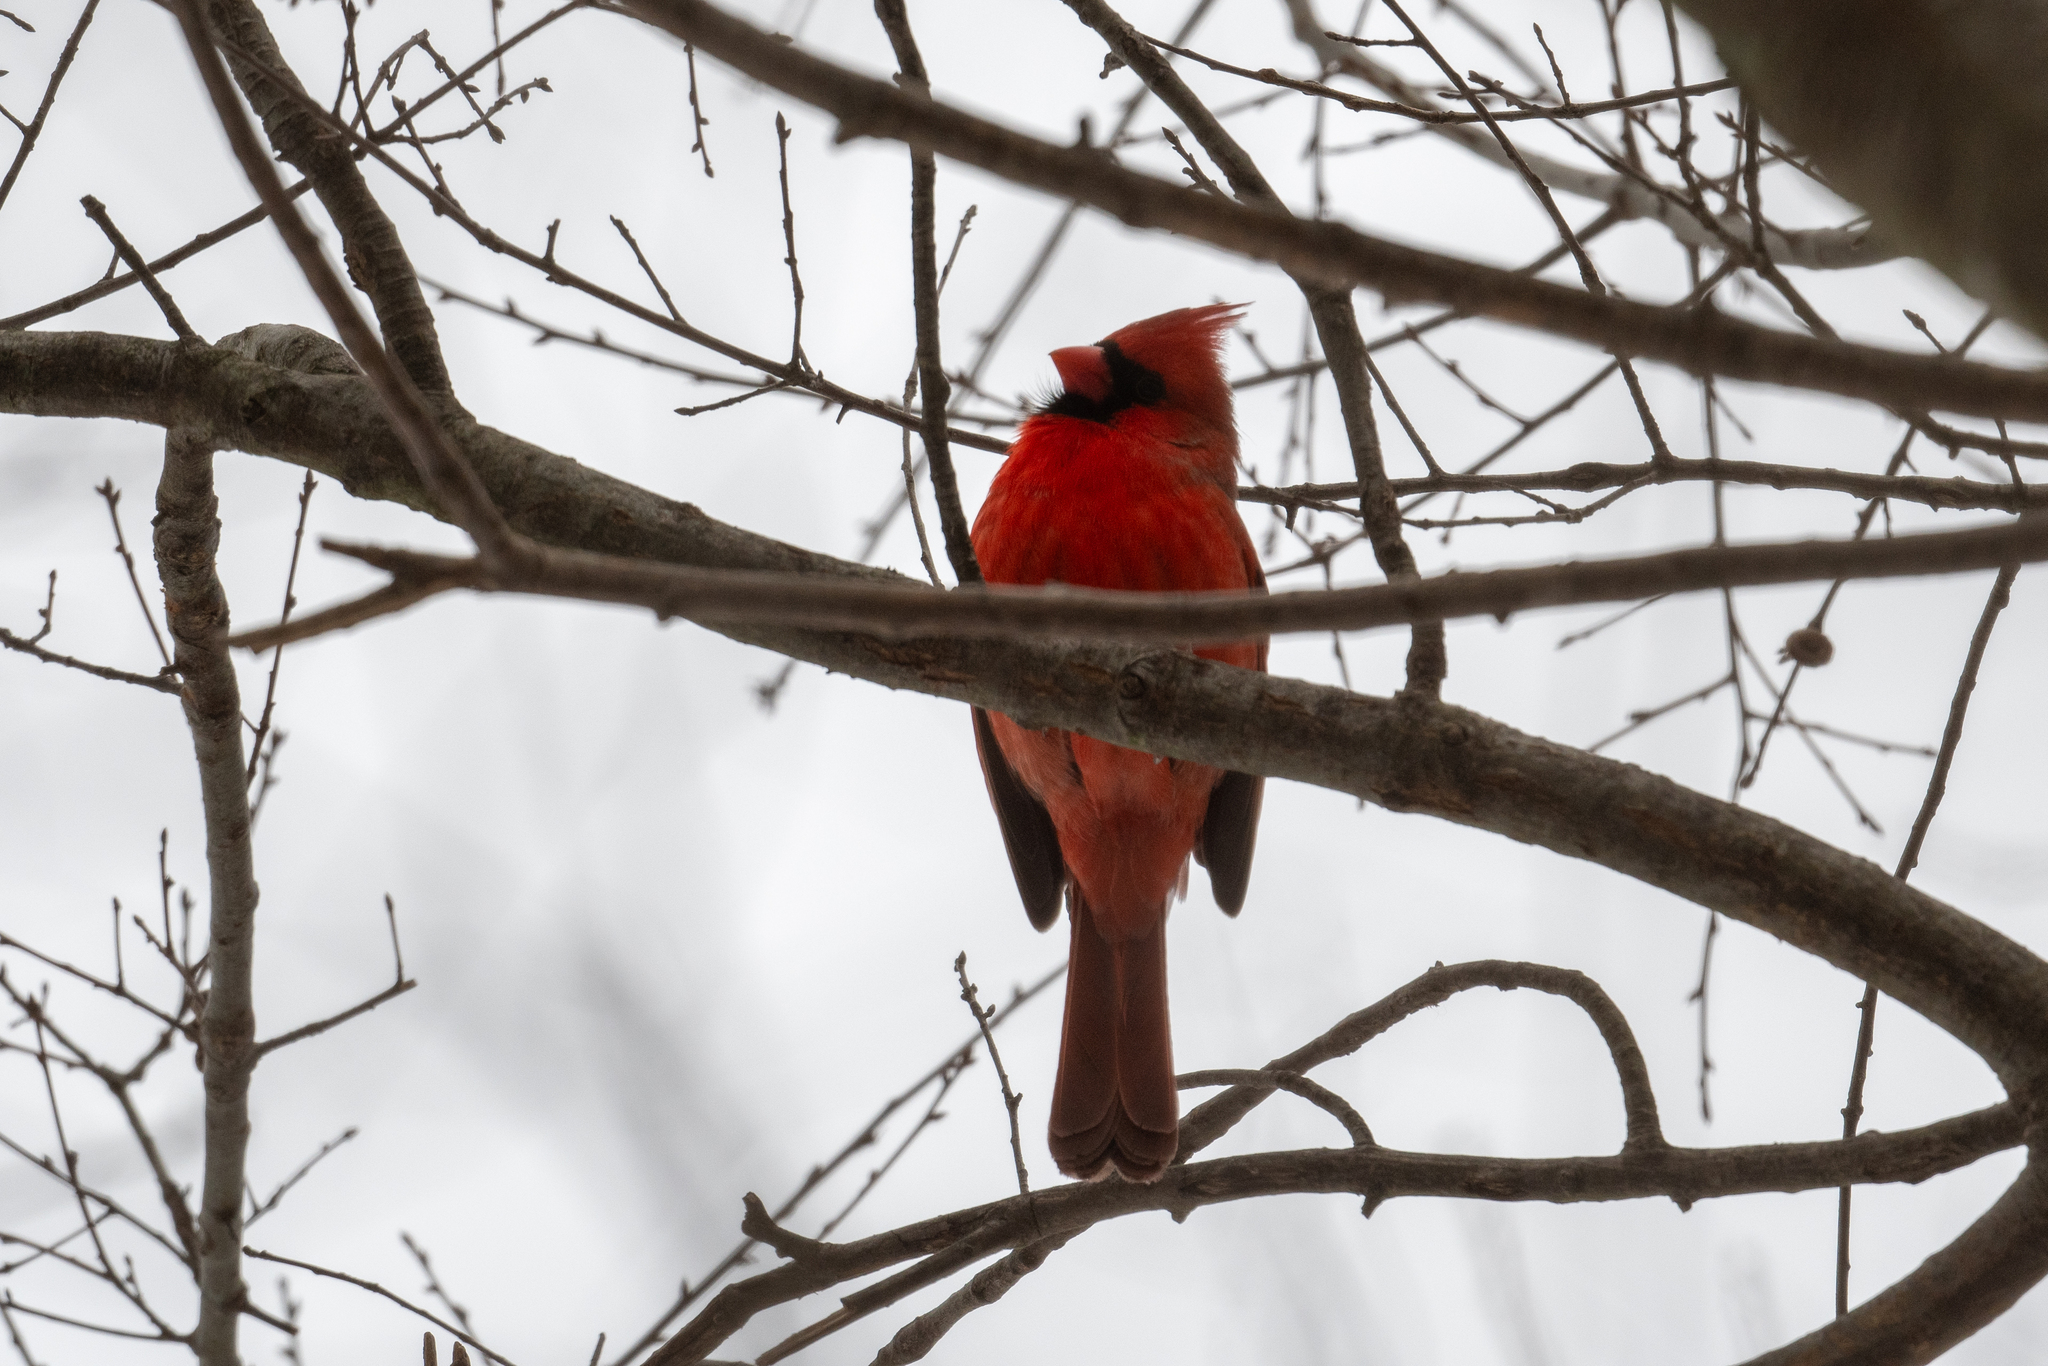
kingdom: Animalia
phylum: Chordata
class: Aves
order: Passeriformes
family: Cardinalidae
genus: Cardinalis
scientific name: Cardinalis cardinalis
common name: Northern cardinal
